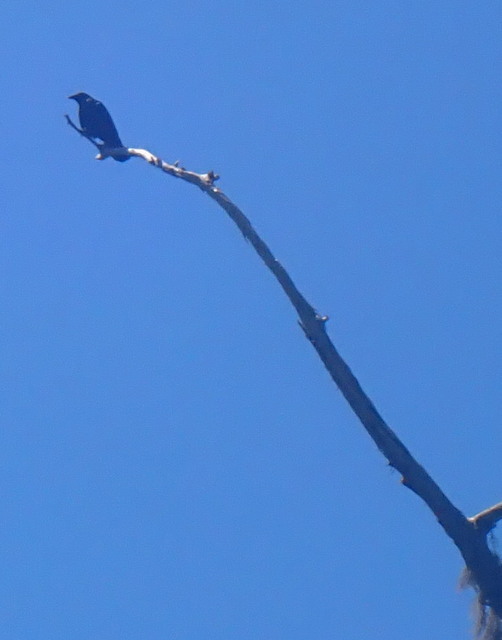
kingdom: Animalia
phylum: Chordata
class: Aves
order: Passeriformes
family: Corvidae
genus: Corvus
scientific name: Corvus
